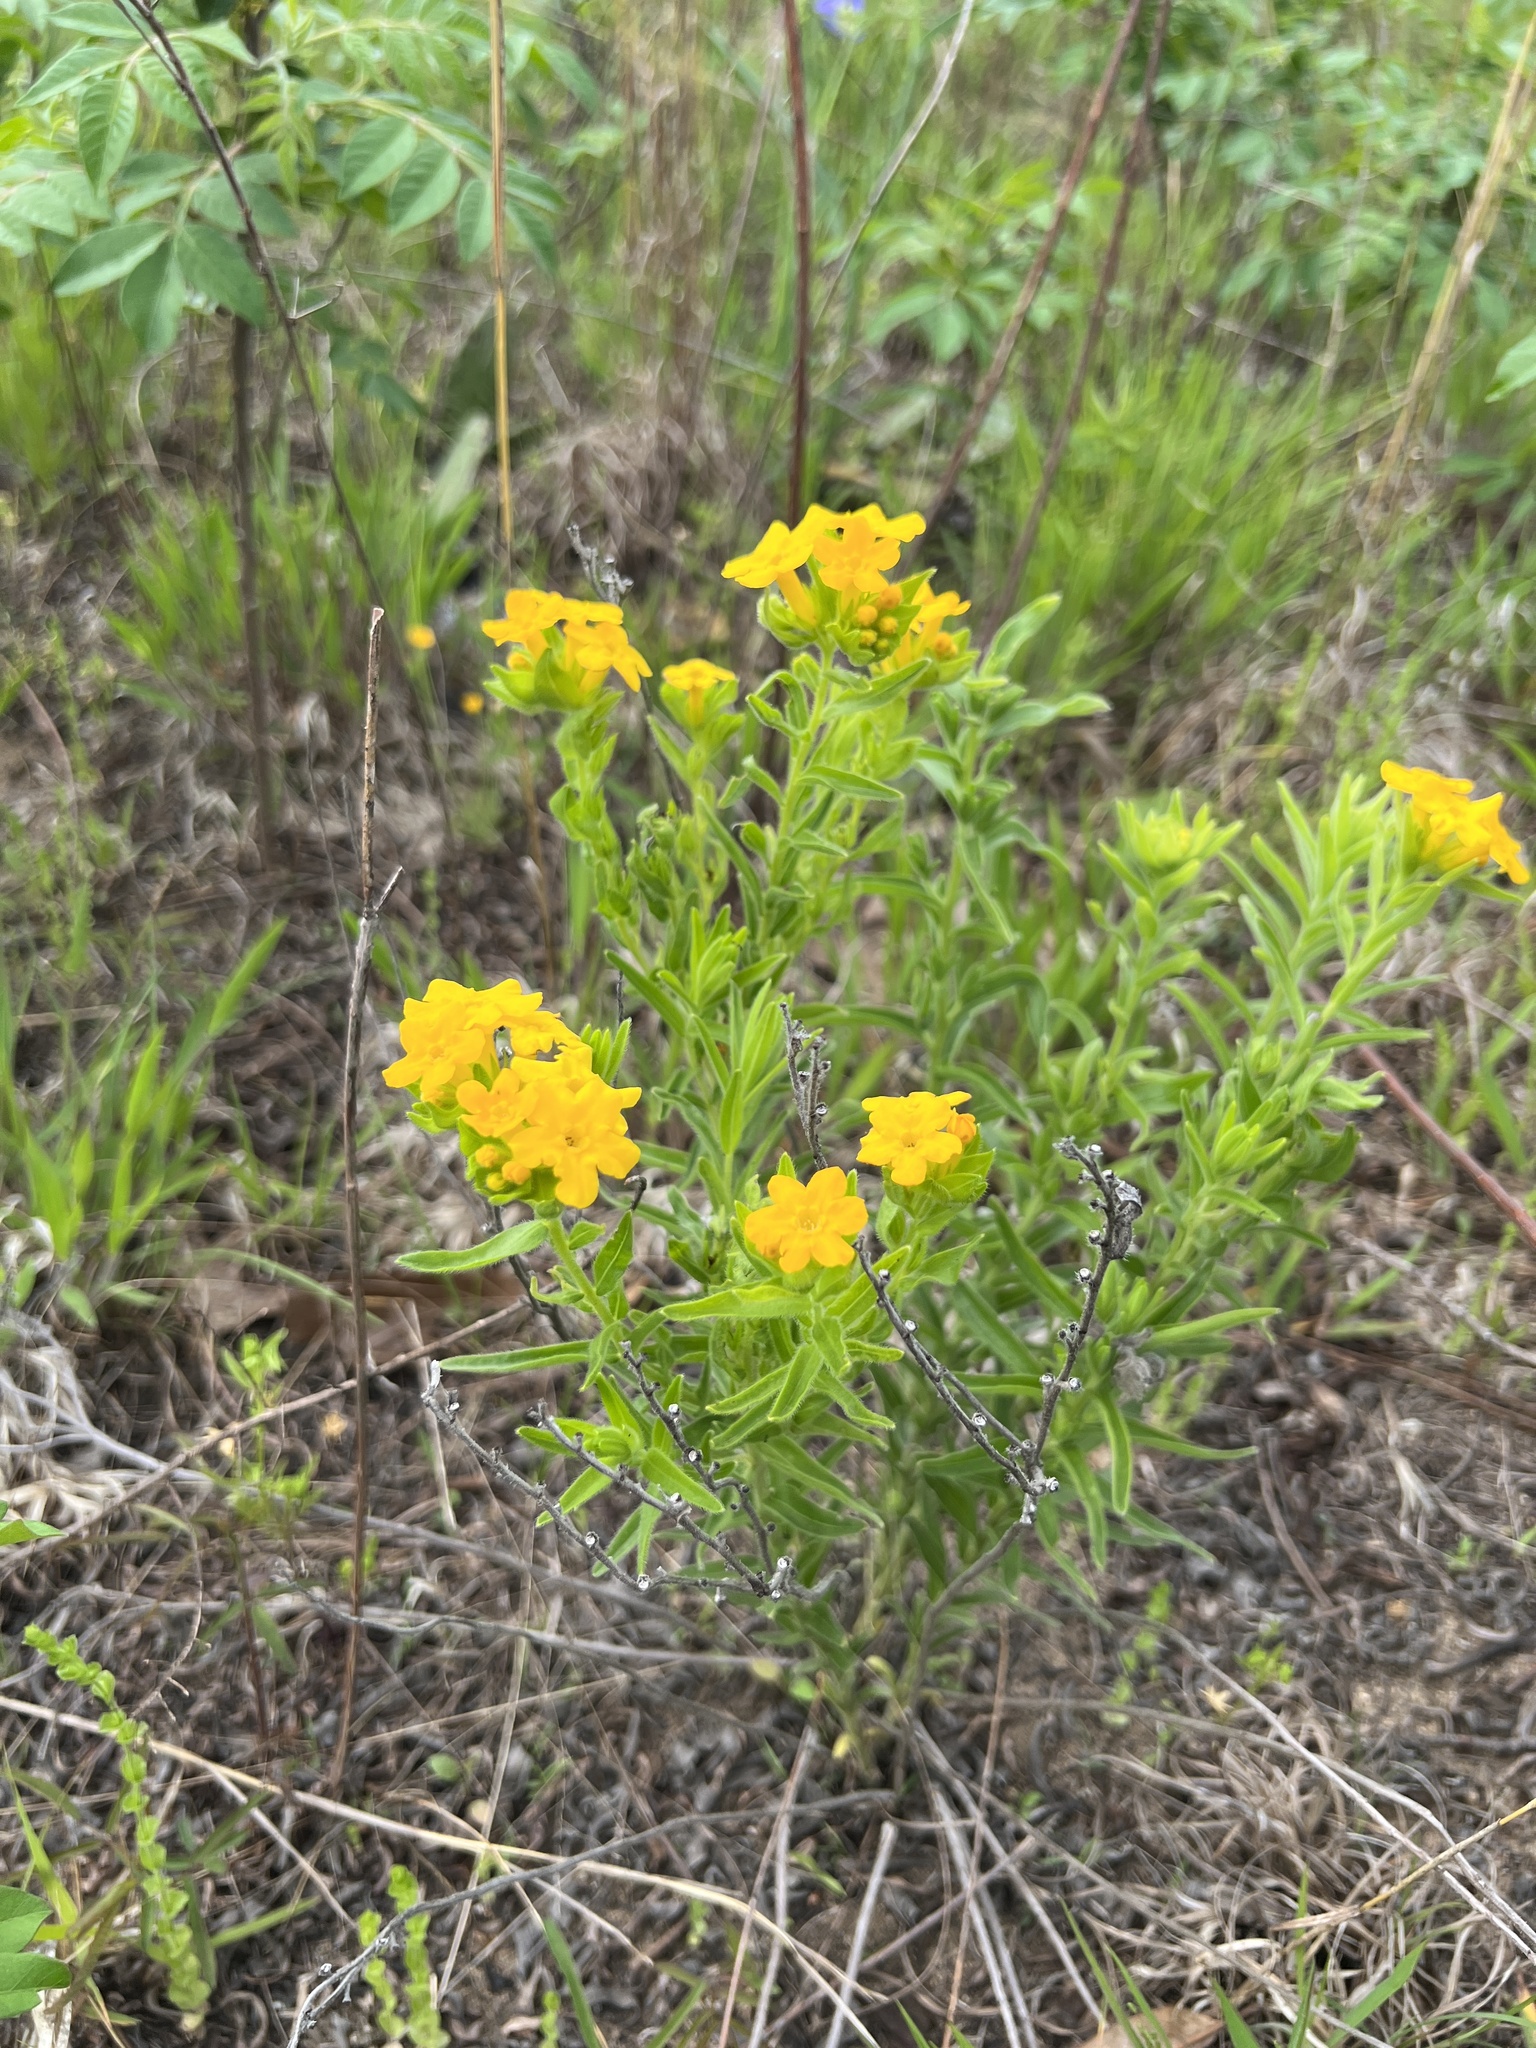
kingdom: Plantae
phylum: Tracheophyta
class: Magnoliopsida
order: Boraginales
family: Boraginaceae
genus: Lithospermum
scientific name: Lithospermum caroliniense
